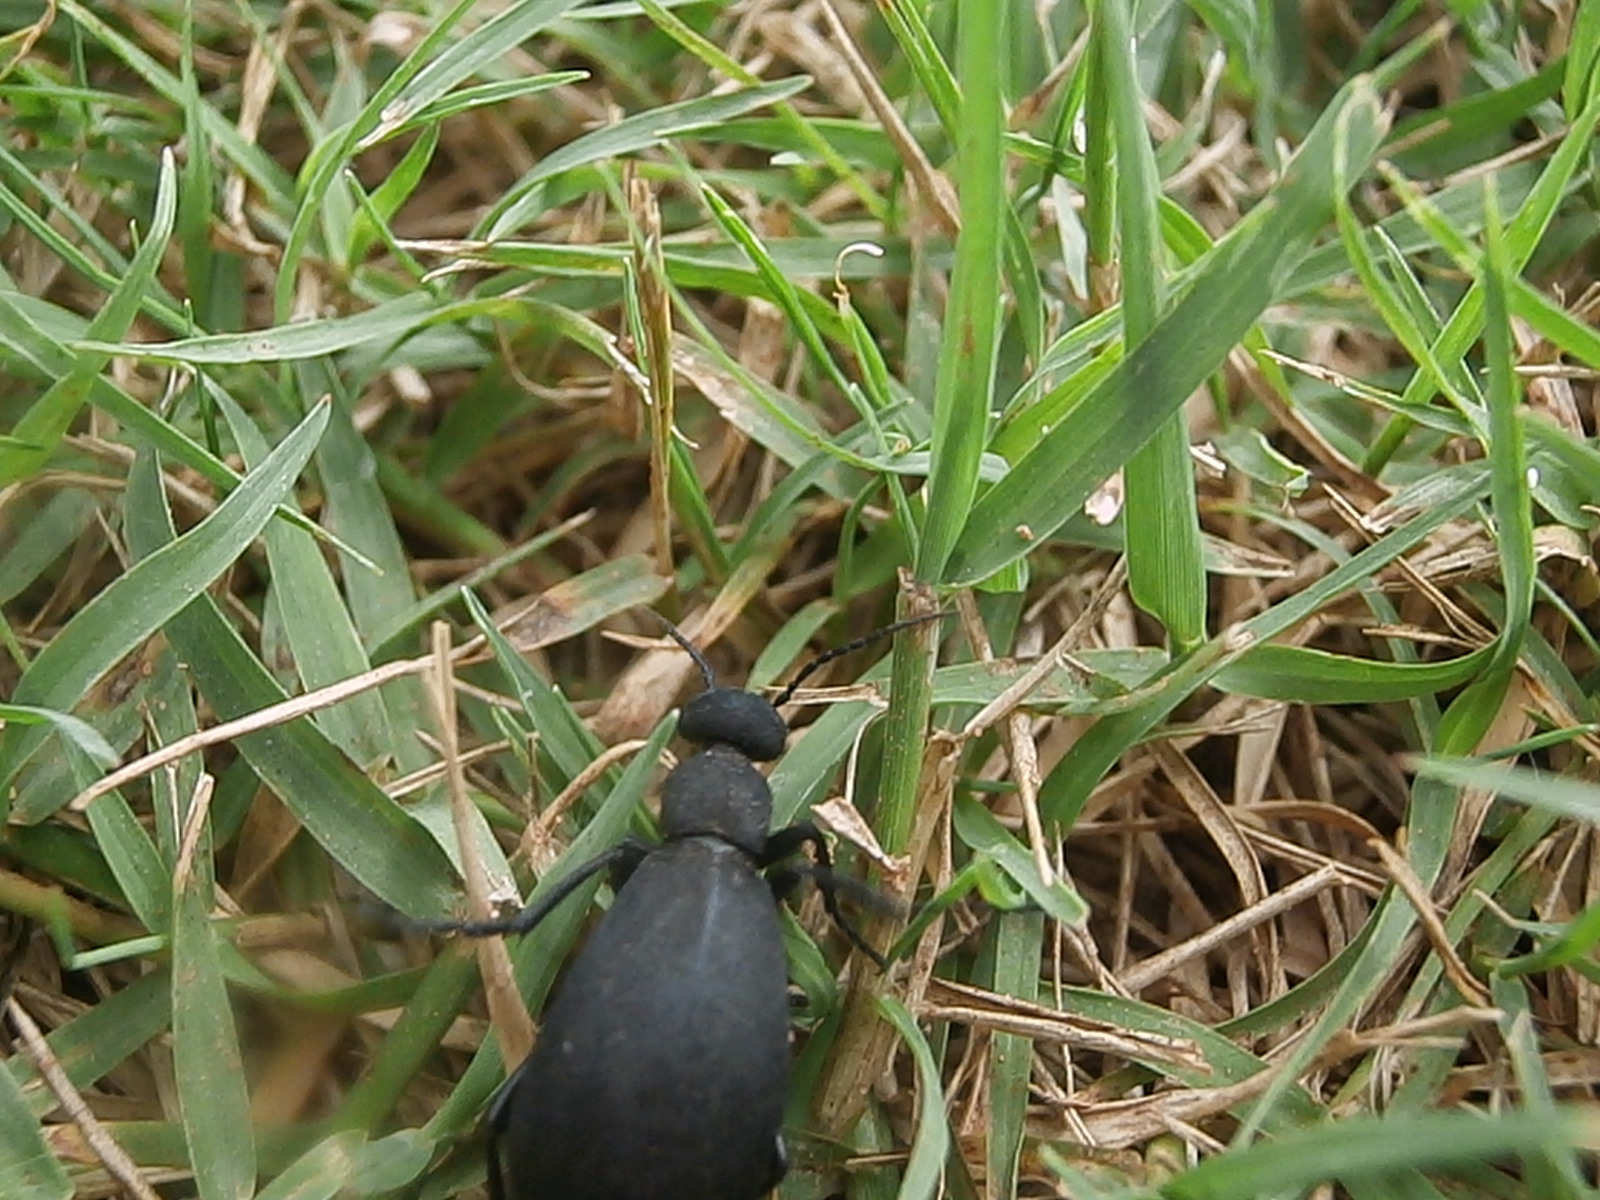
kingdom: Animalia
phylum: Arthropoda
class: Insecta
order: Coleoptera
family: Meloidae
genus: Epicauta
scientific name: Epicauta conferta
